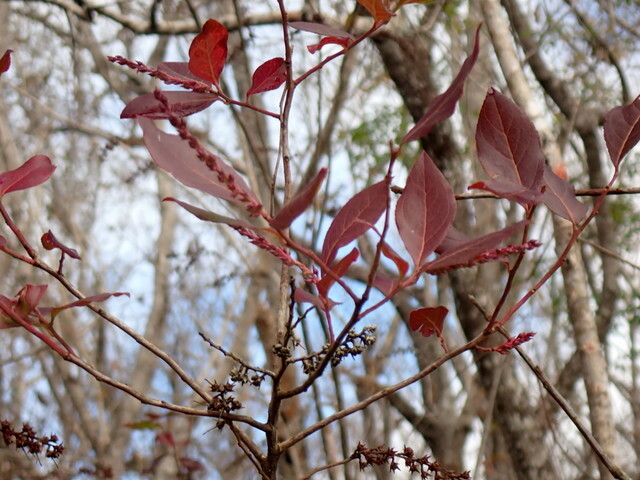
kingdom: Plantae
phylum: Tracheophyta
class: Magnoliopsida
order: Ericales
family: Ericaceae
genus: Eubotrys
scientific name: Eubotrys racemosa
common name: Fetterbush
